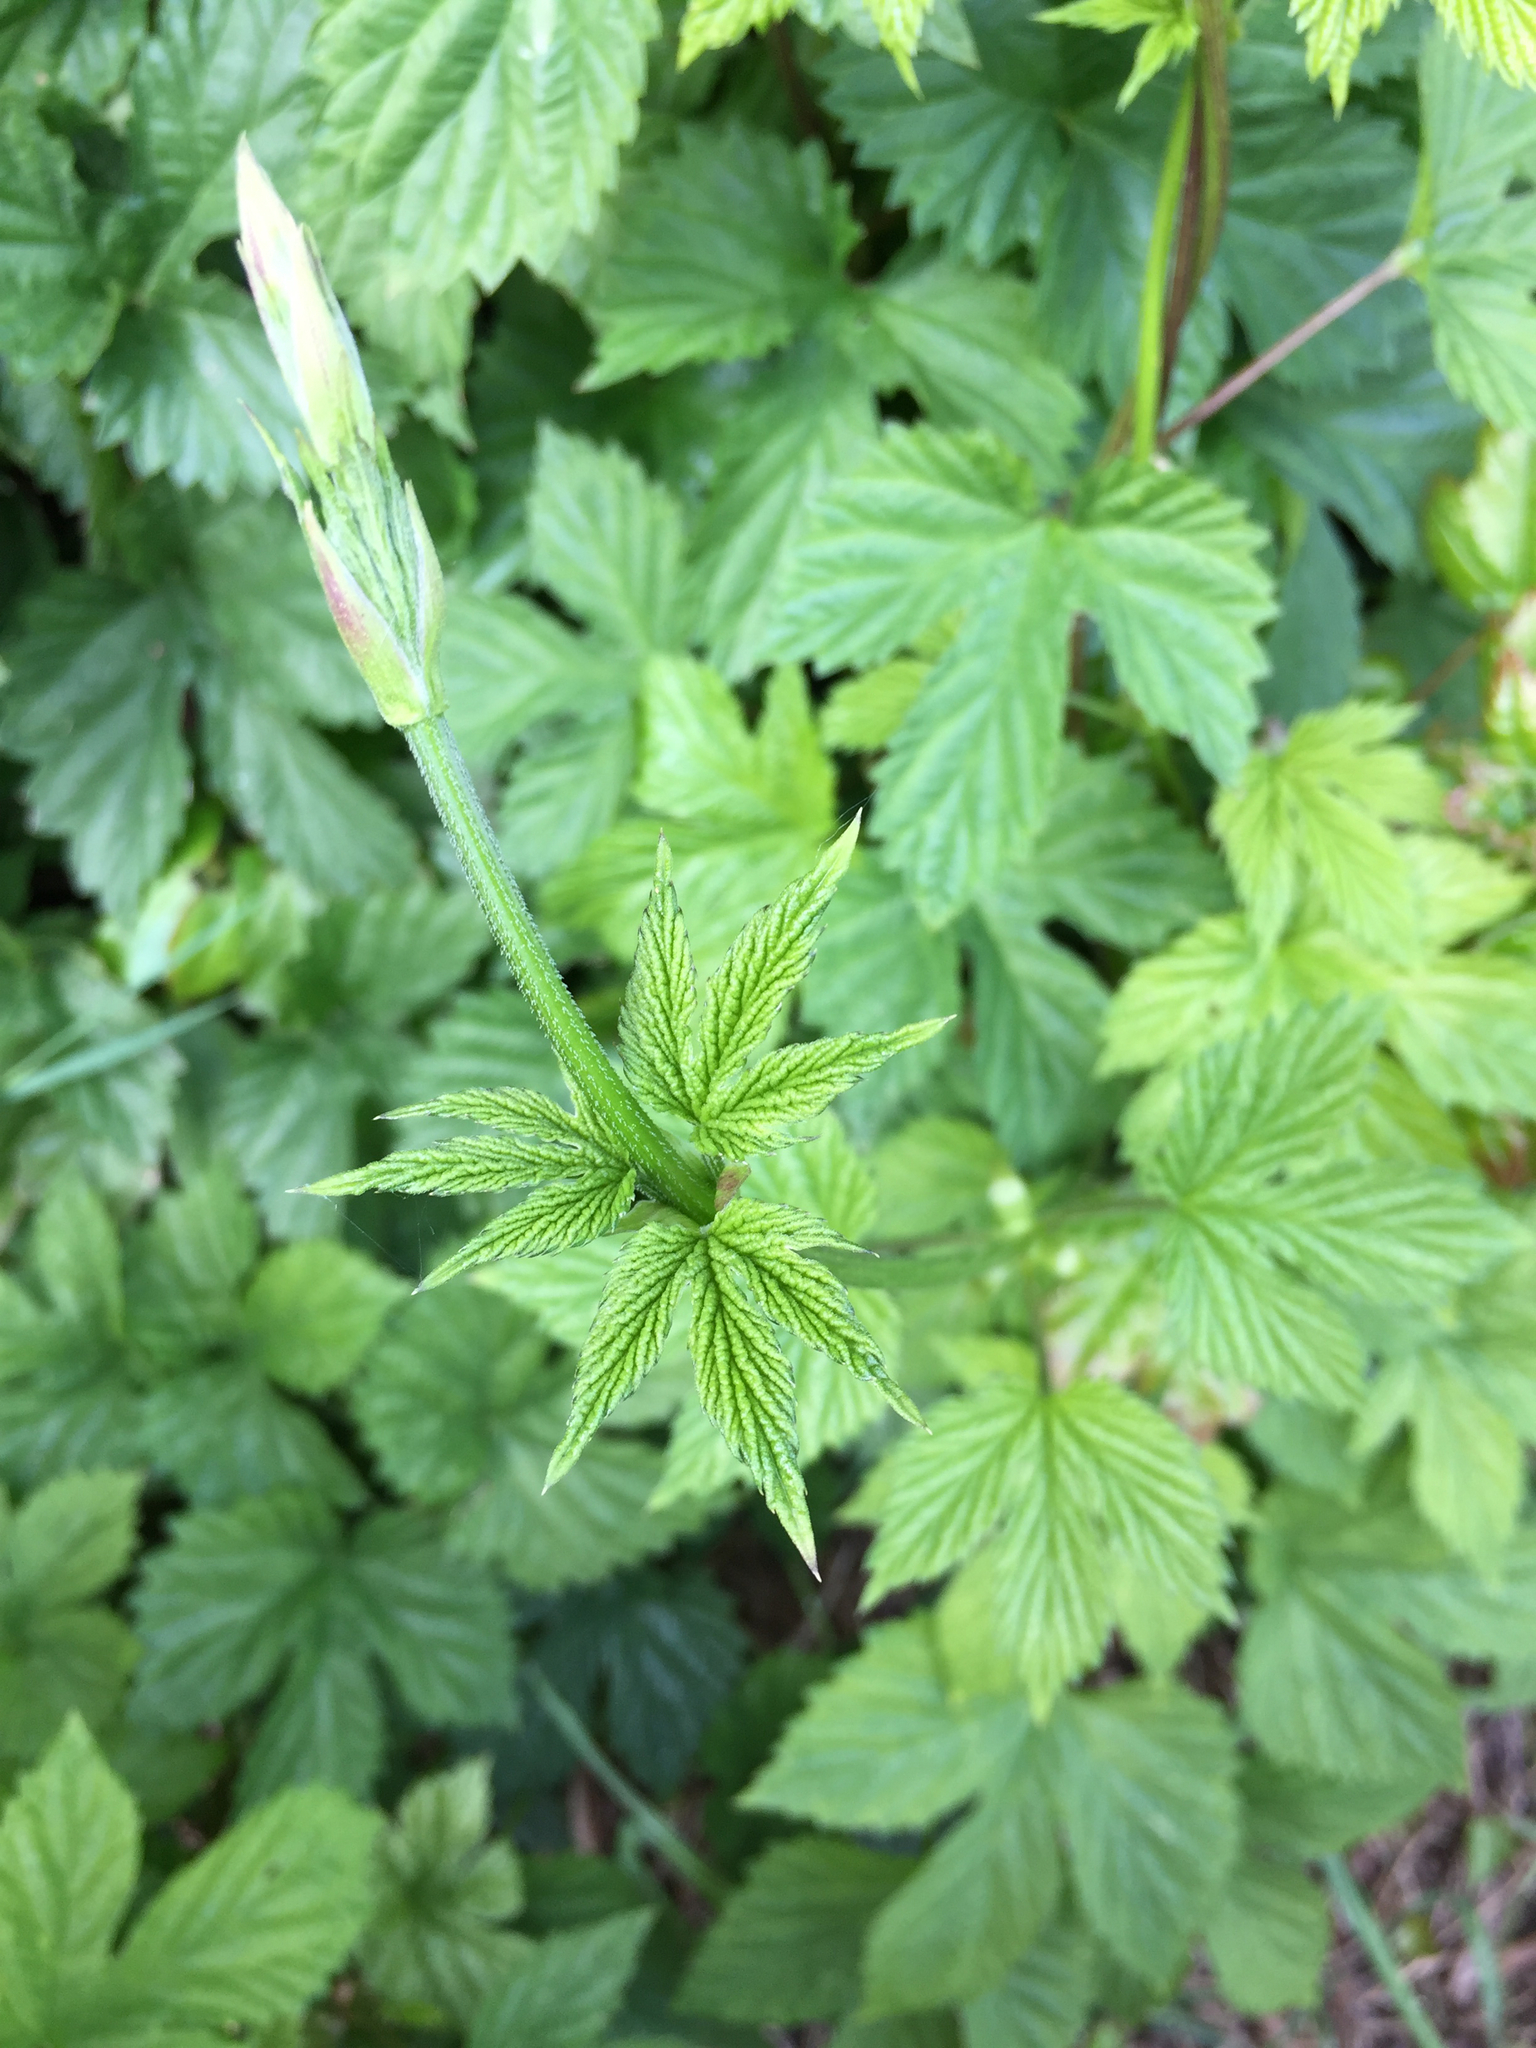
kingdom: Plantae
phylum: Tracheophyta
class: Magnoliopsida
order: Rosales
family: Cannabaceae
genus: Humulus
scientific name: Humulus lupulus
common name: Hop
